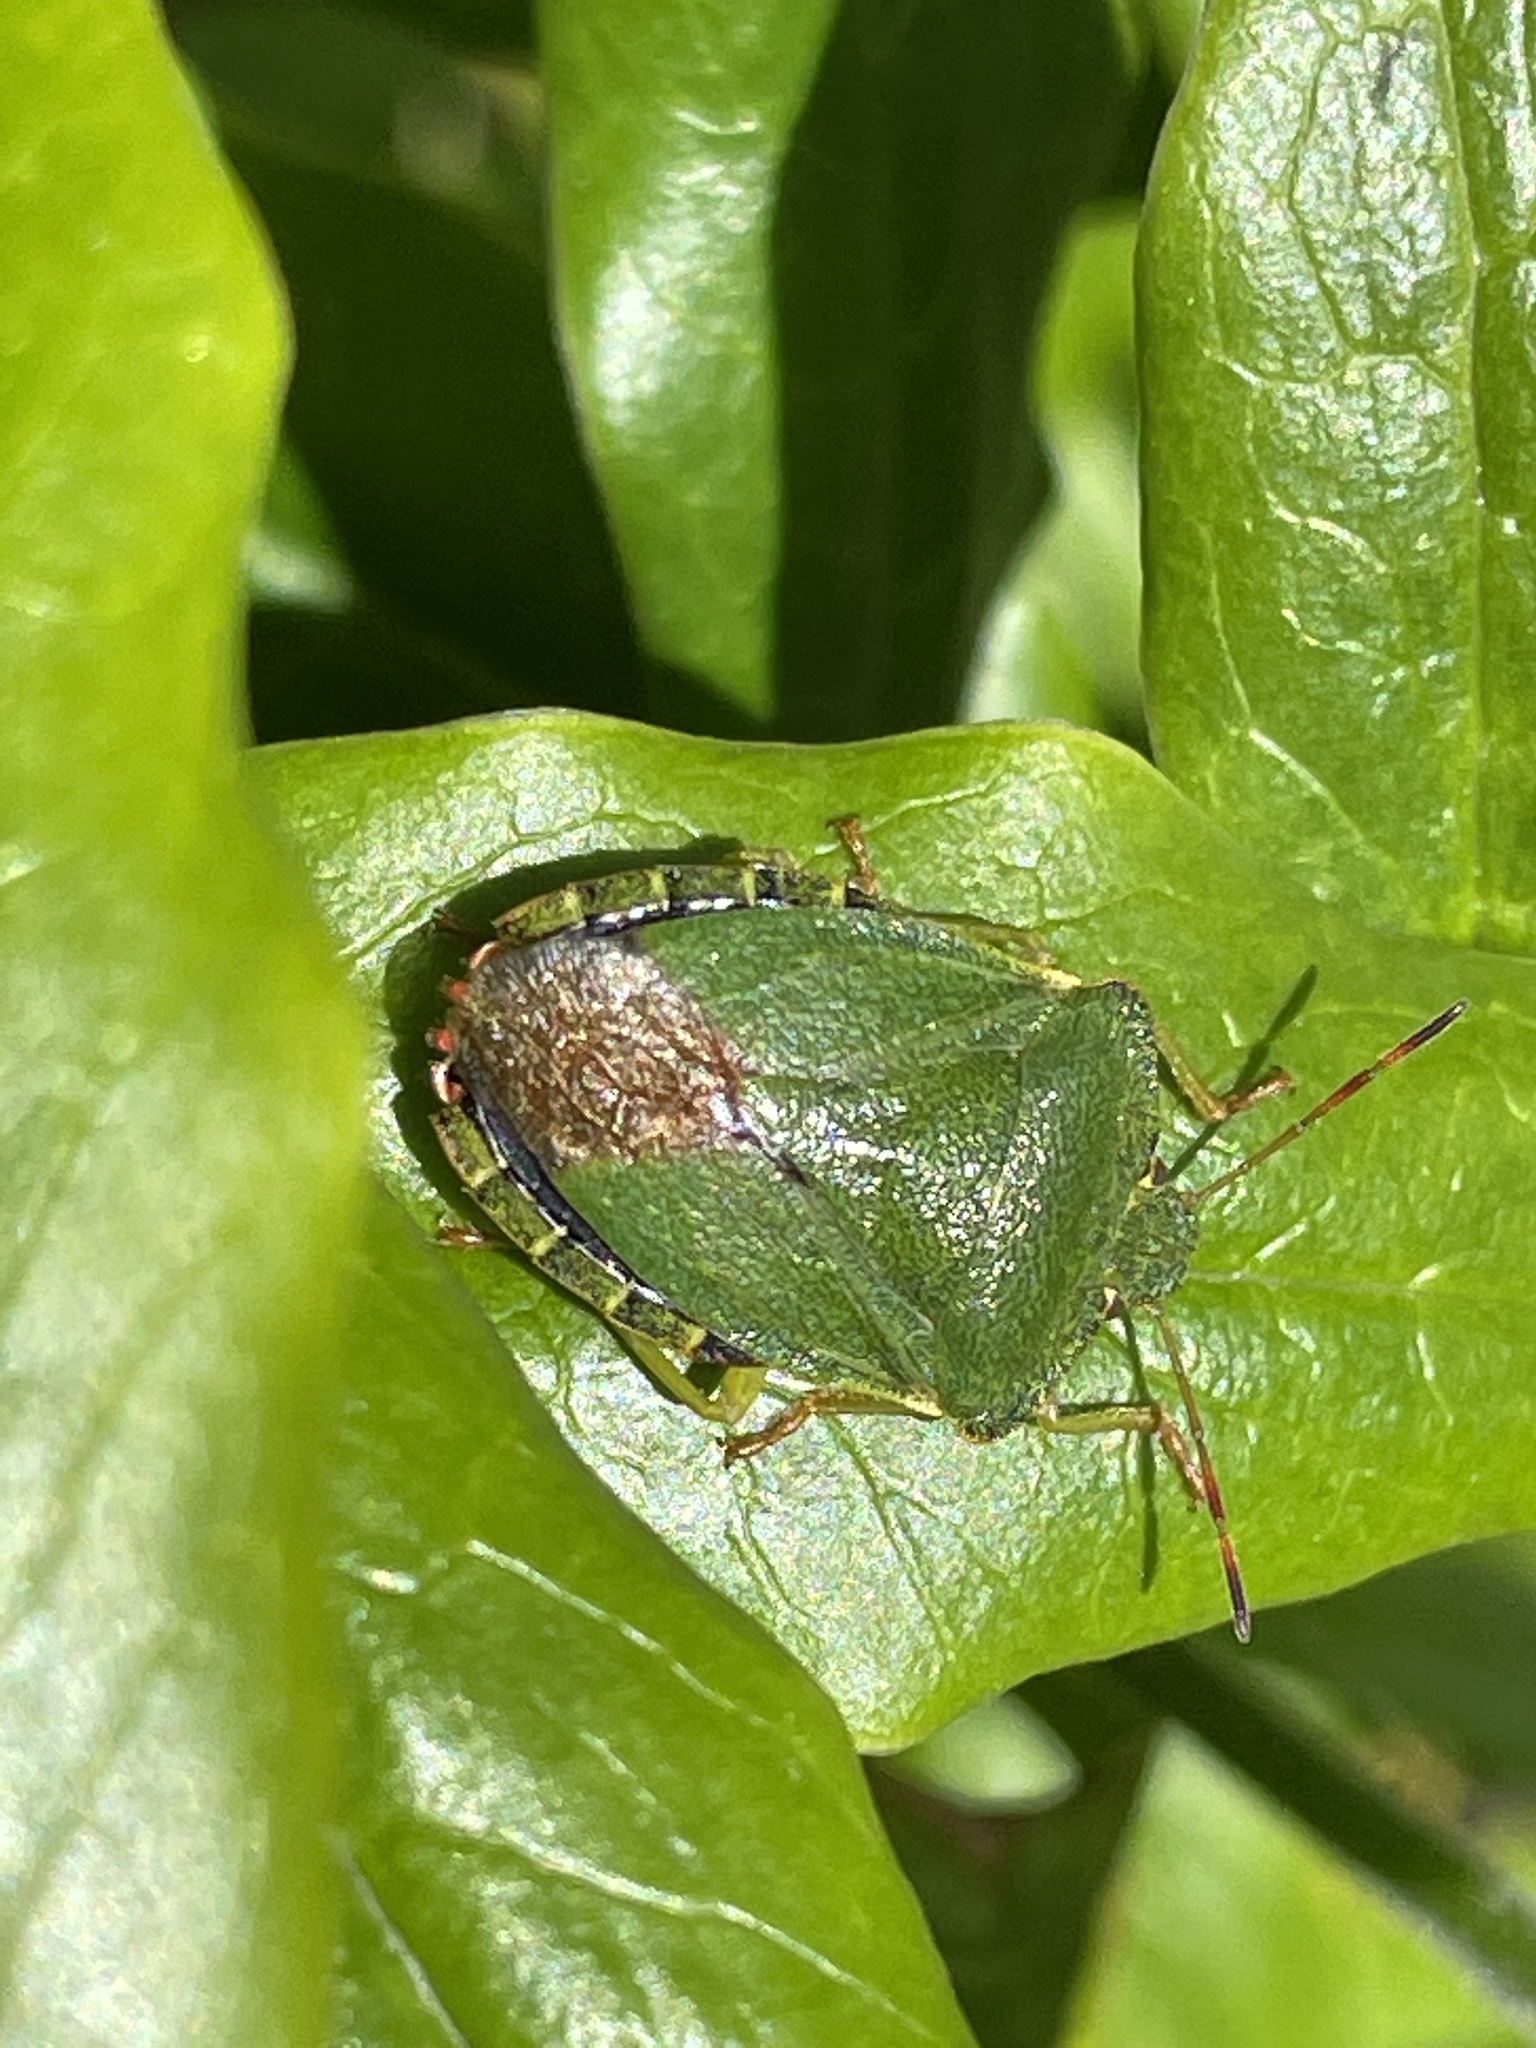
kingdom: Animalia
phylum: Arthropoda
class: Insecta
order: Hemiptera
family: Pentatomidae
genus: Palomena
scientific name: Palomena prasina
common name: Green shieldbug
